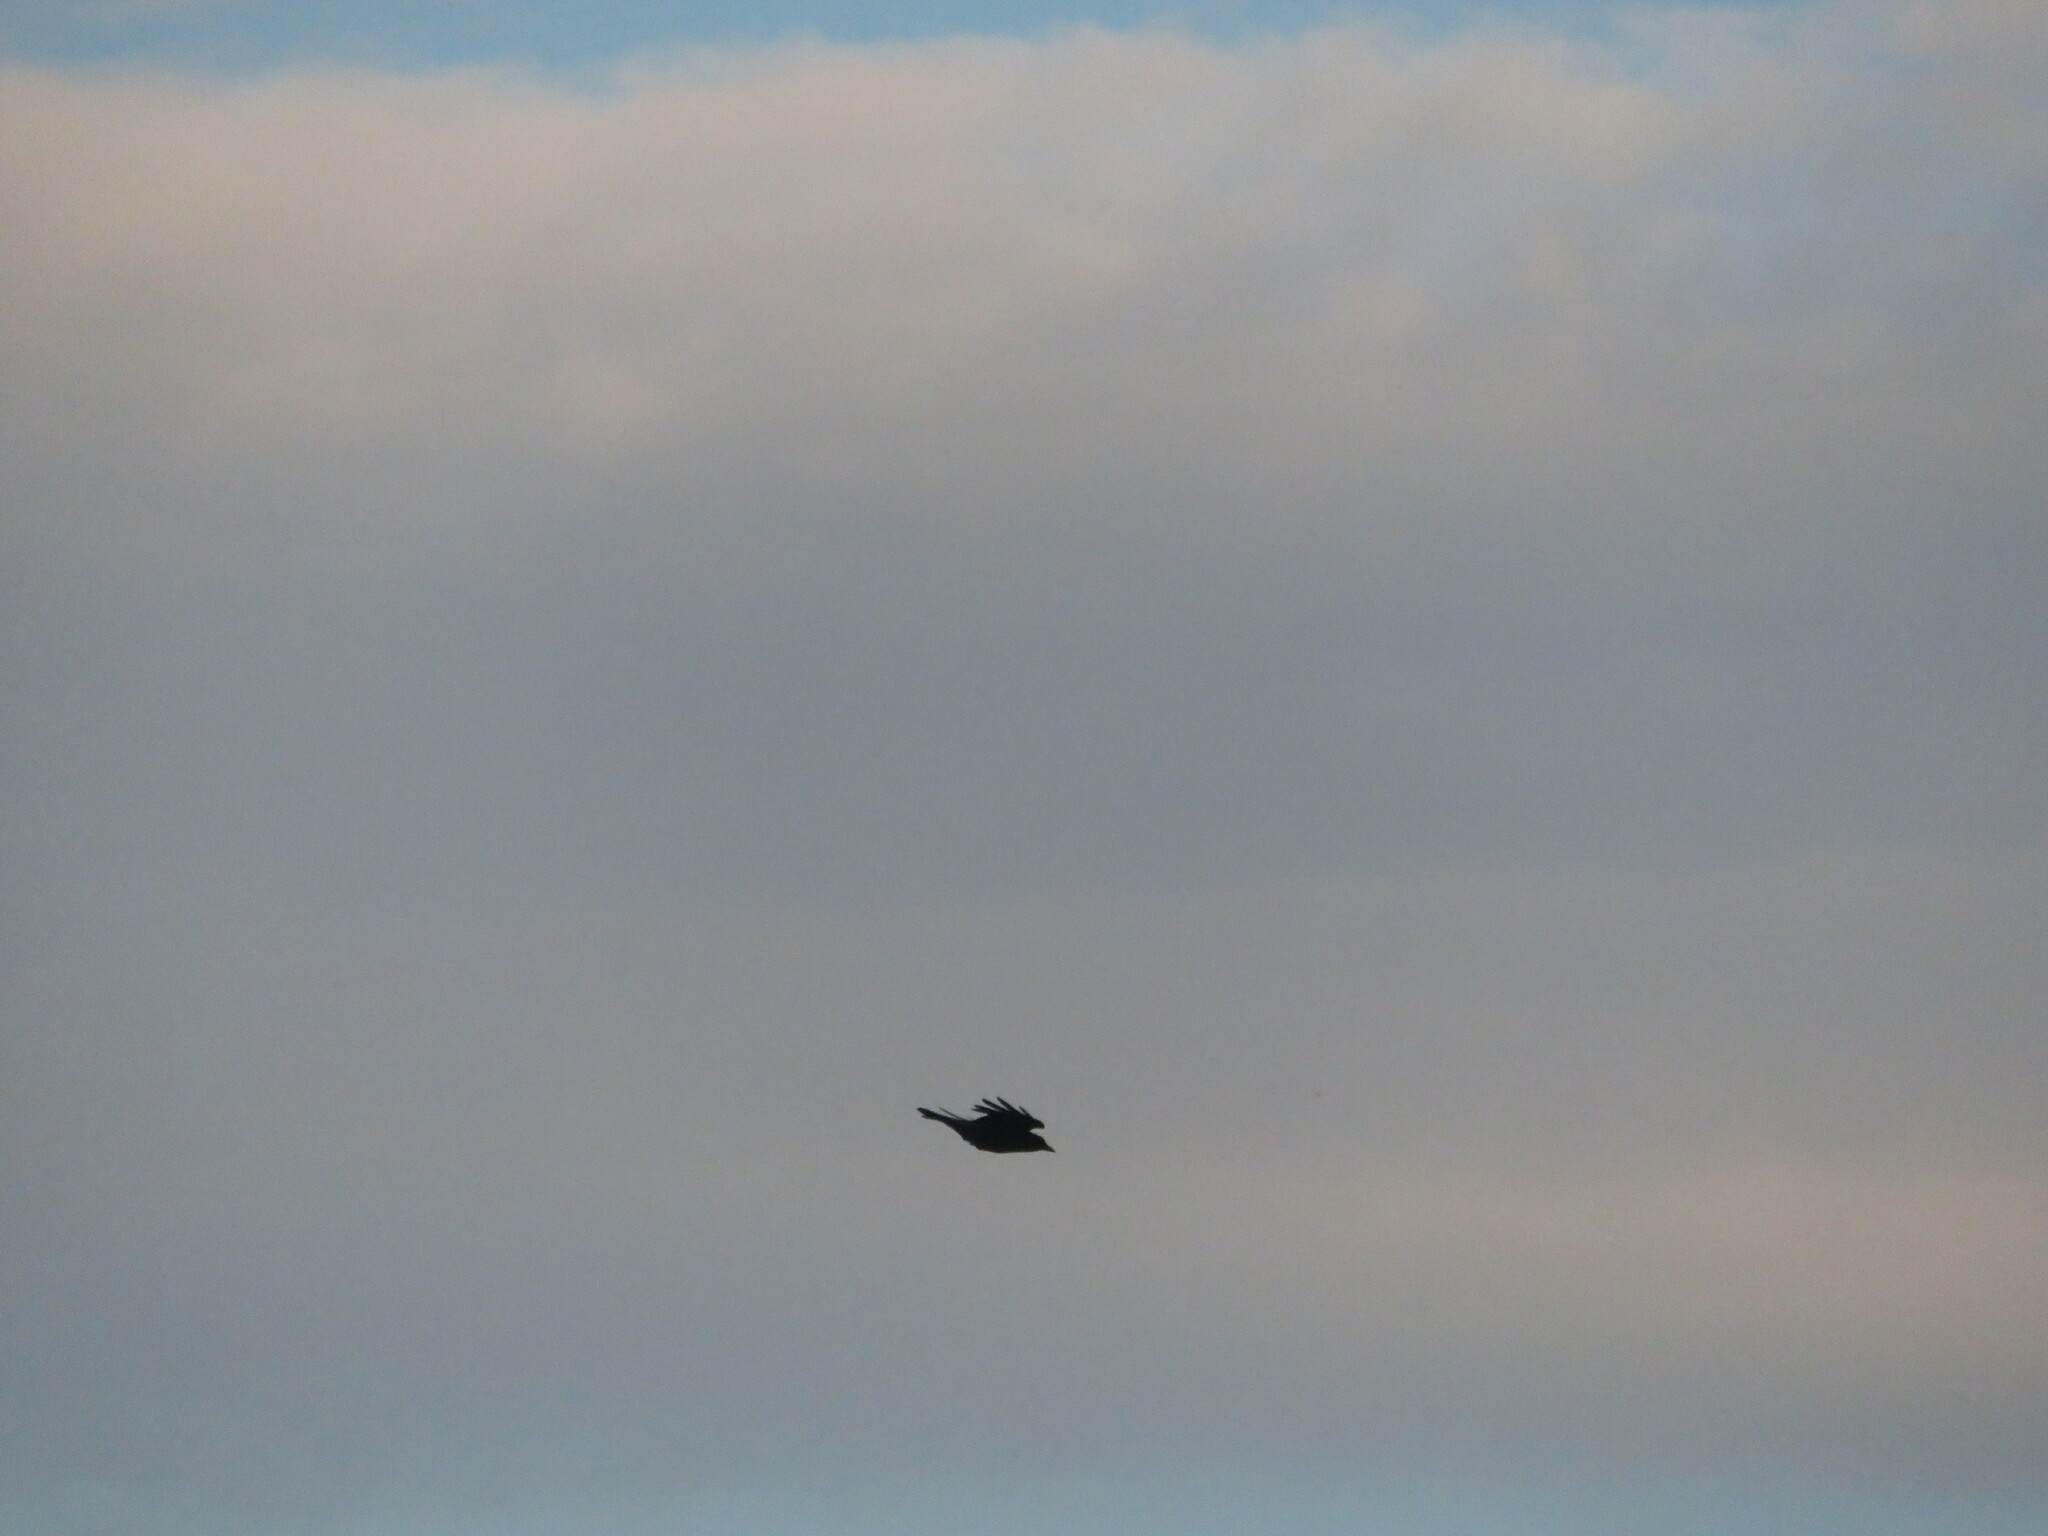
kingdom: Animalia
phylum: Chordata
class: Aves
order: Passeriformes
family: Corvidae
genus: Corvus
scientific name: Corvus corone
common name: Carrion crow
